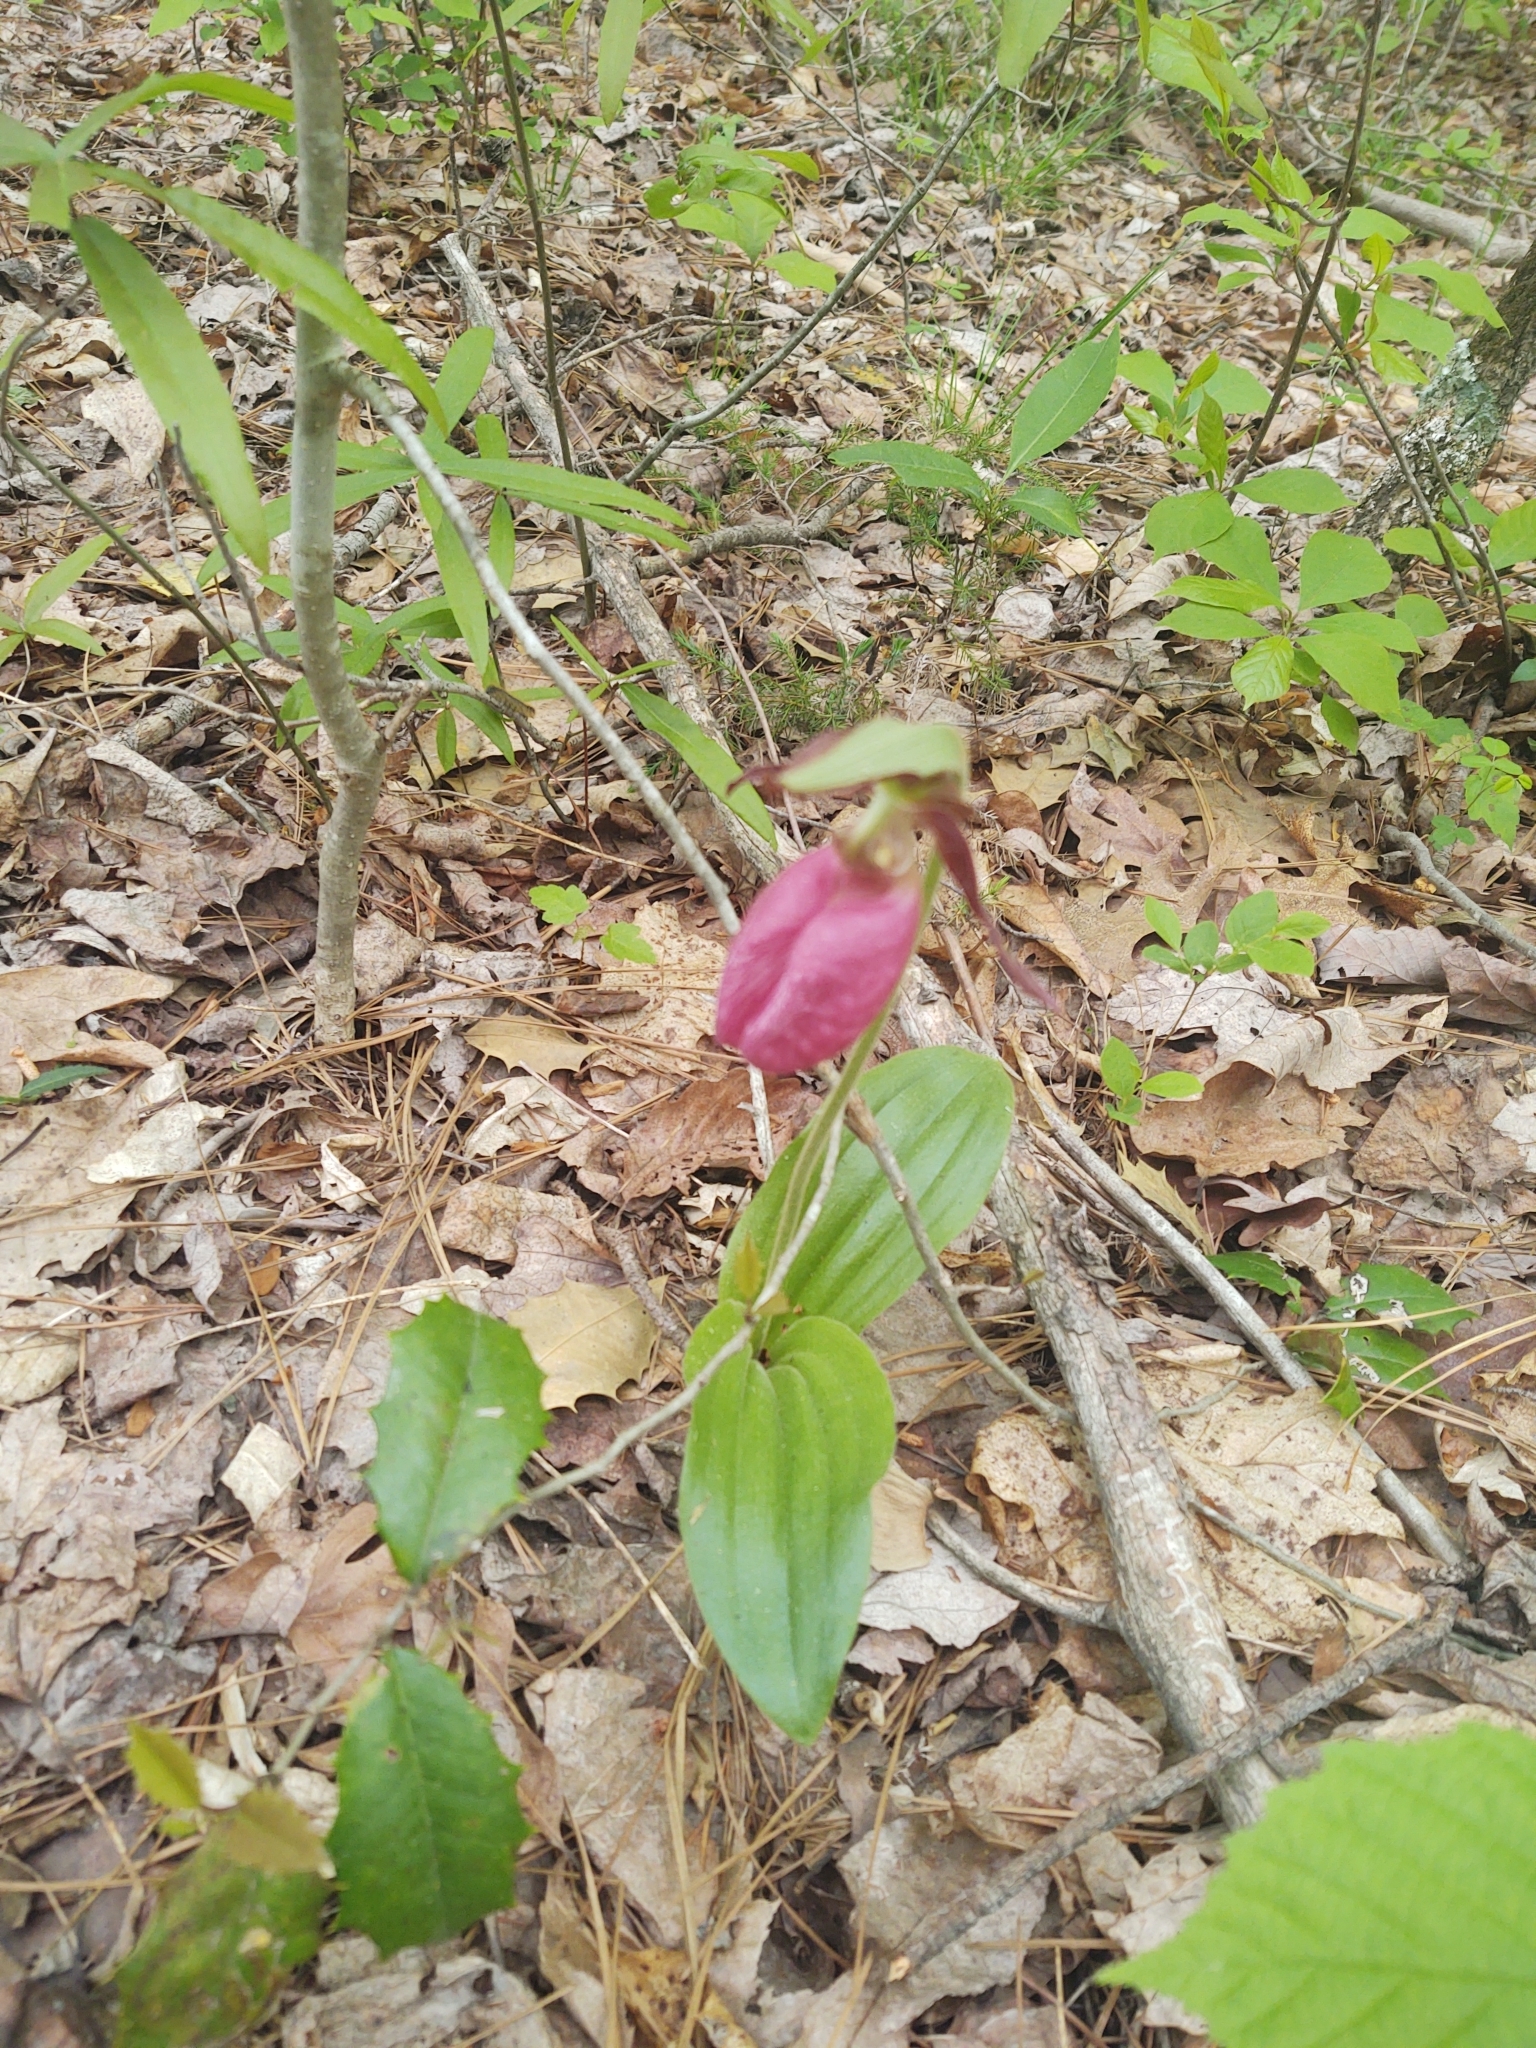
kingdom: Plantae
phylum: Tracheophyta
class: Liliopsida
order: Asparagales
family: Orchidaceae
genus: Cypripedium
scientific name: Cypripedium acaule
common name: Pink lady's-slipper
